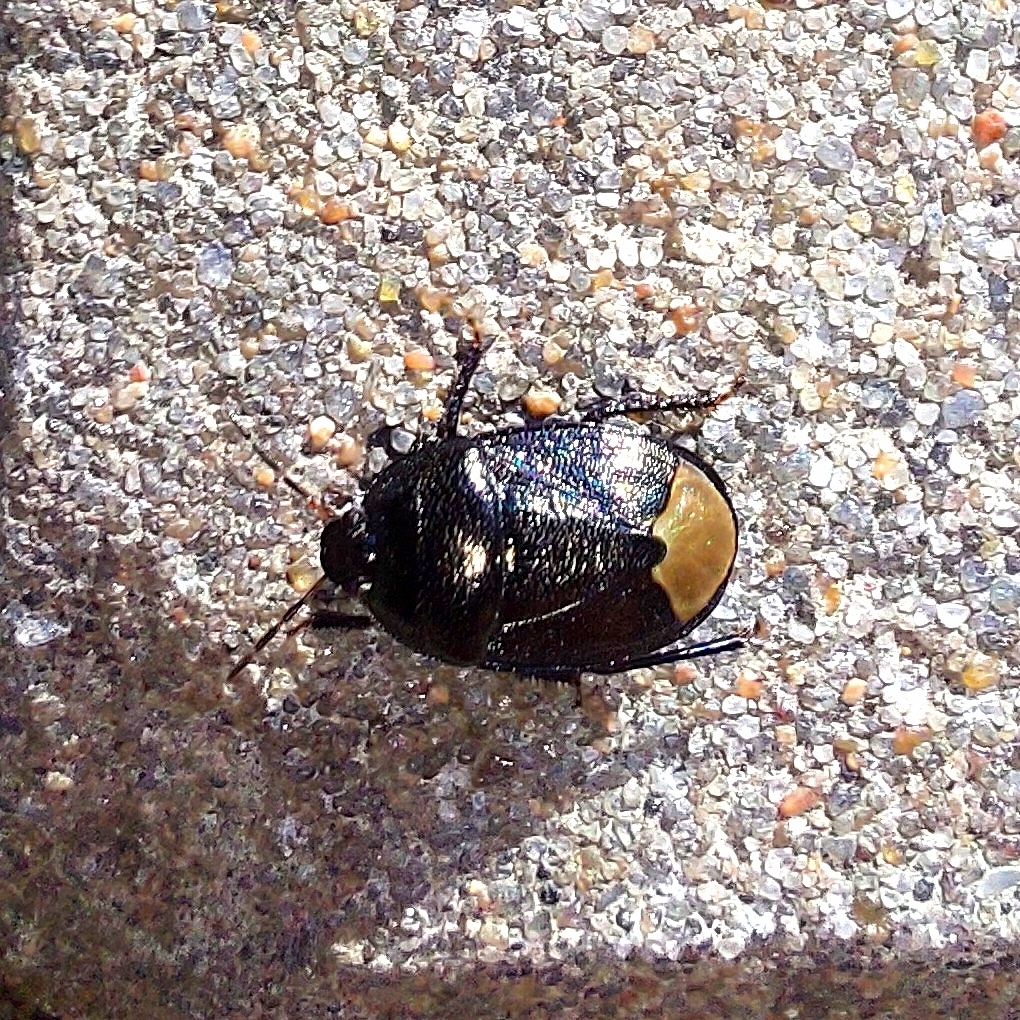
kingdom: Animalia
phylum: Arthropoda
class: Insecta
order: Hemiptera
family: Cydnidae
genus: Sehirus
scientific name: Sehirus luctuosus
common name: Forget-me-not shieldbug
